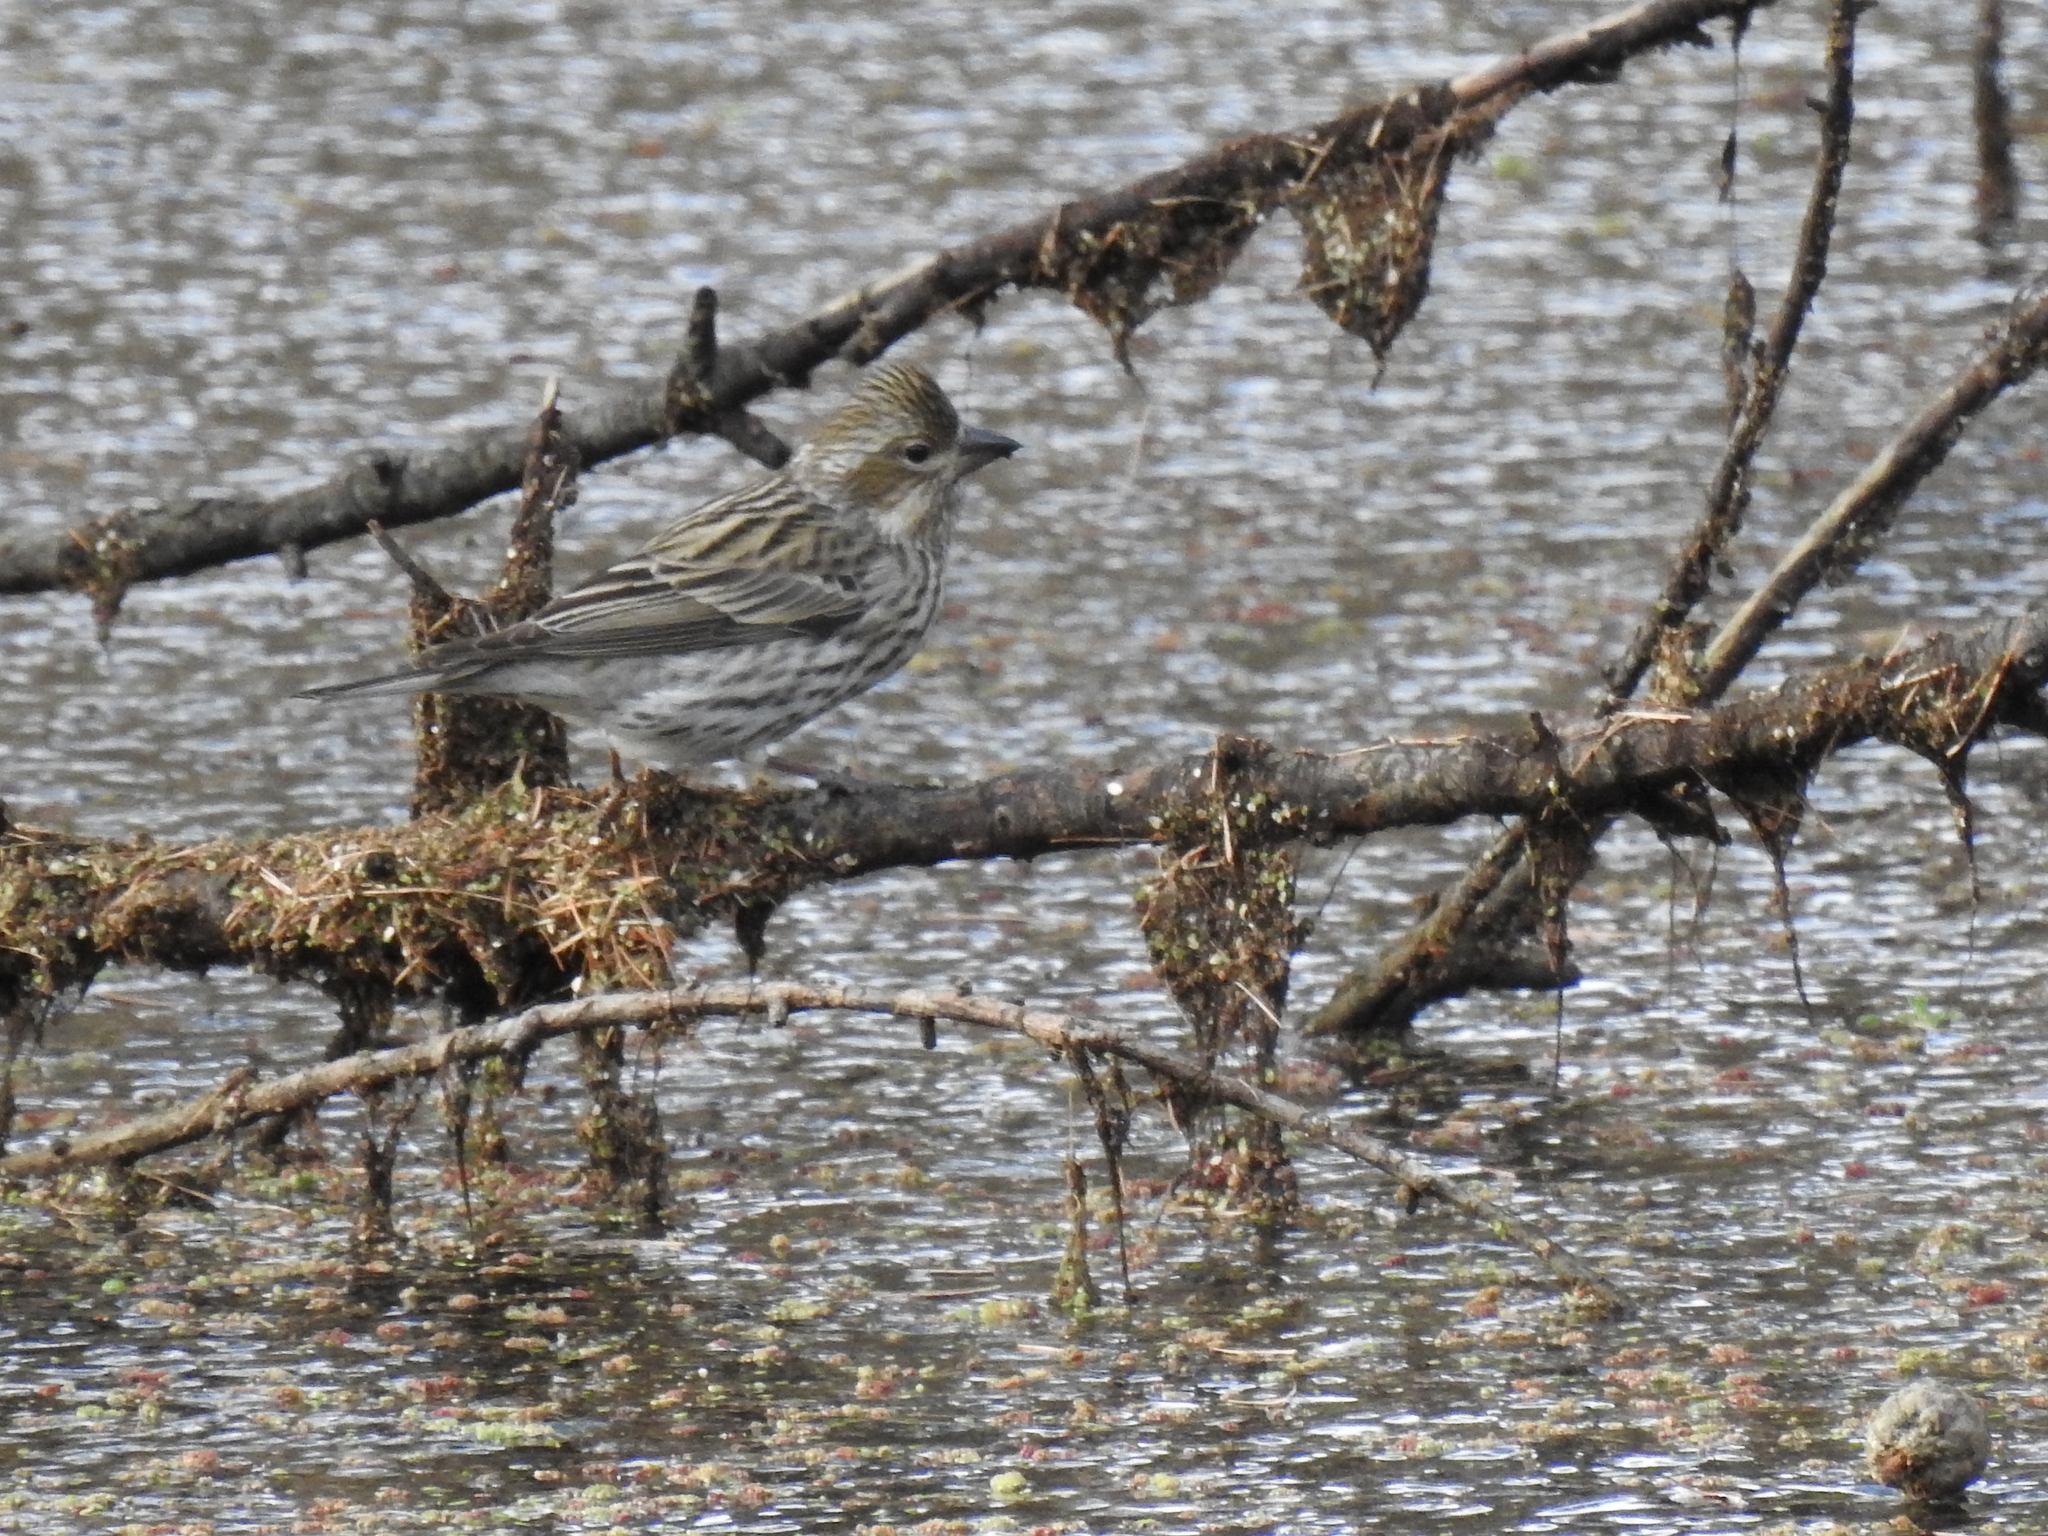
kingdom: Animalia
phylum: Chordata
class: Aves
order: Passeriformes
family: Fringillidae
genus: Haemorhous
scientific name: Haemorhous cassinii
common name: Cassin's finch
